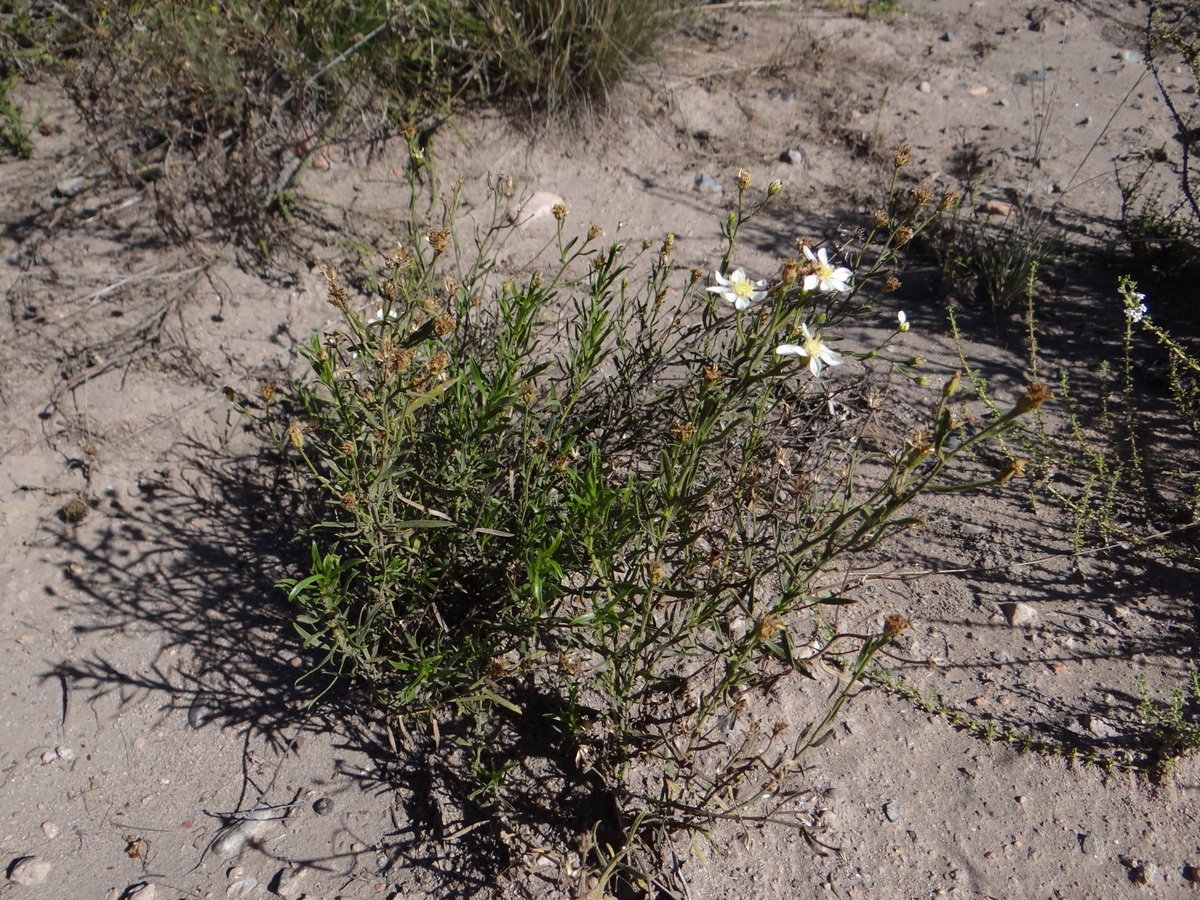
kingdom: Plantae
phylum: Tracheophyta
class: Magnoliopsida
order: Asterales
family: Asteraceae
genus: Gutierrezia
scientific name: Gutierrezia solbrigii
